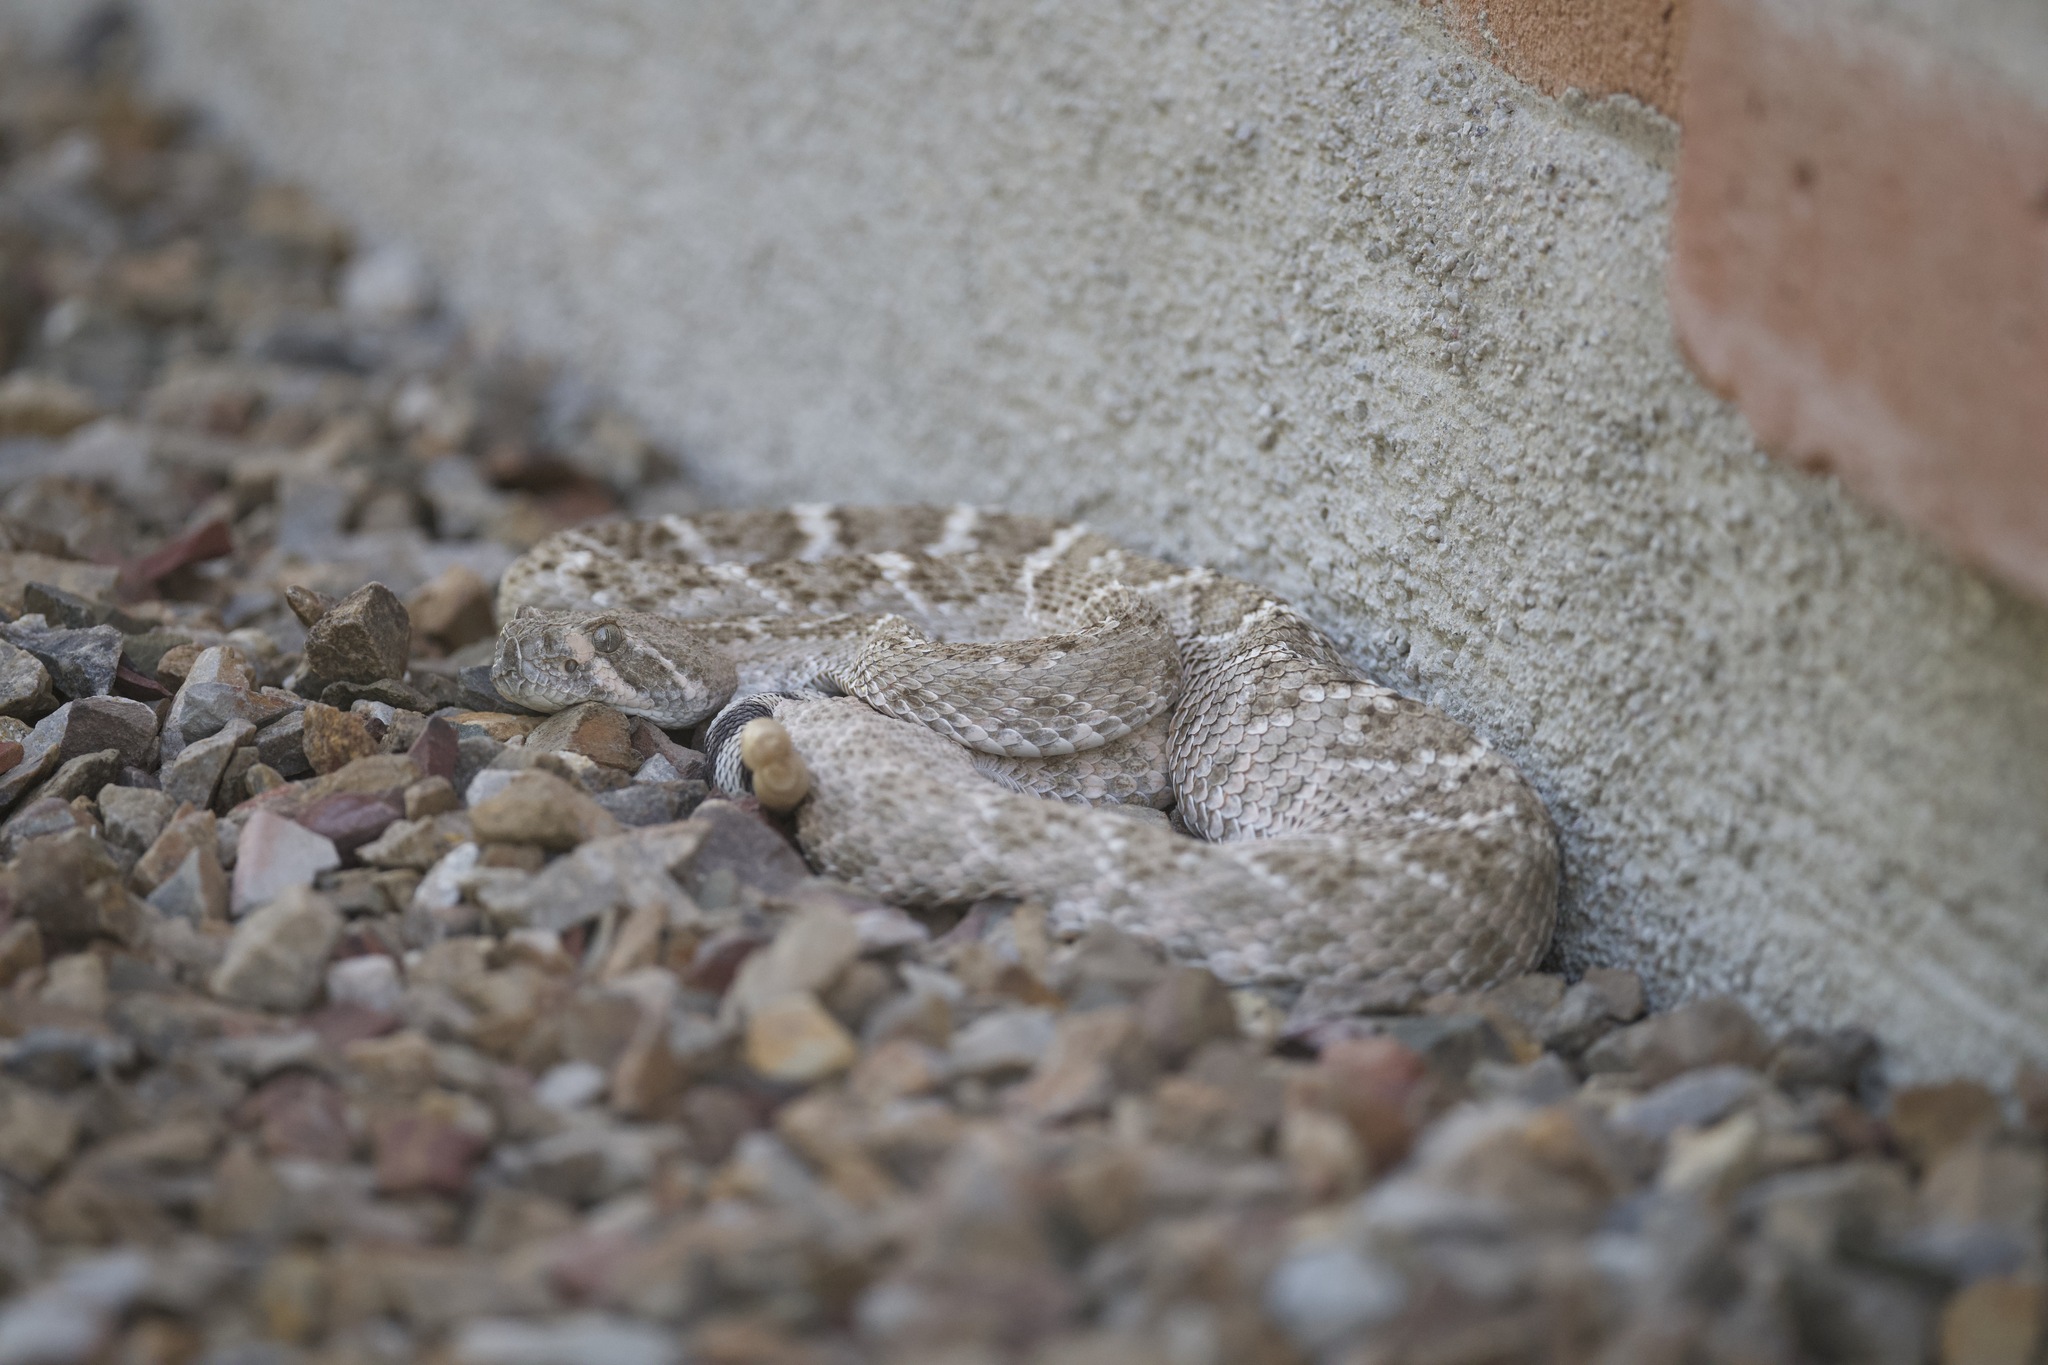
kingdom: Animalia
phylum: Chordata
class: Squamata
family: Viperidae
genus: Crotalus
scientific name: Crotalus atrox
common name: Western diamond-backed rattlesnake
